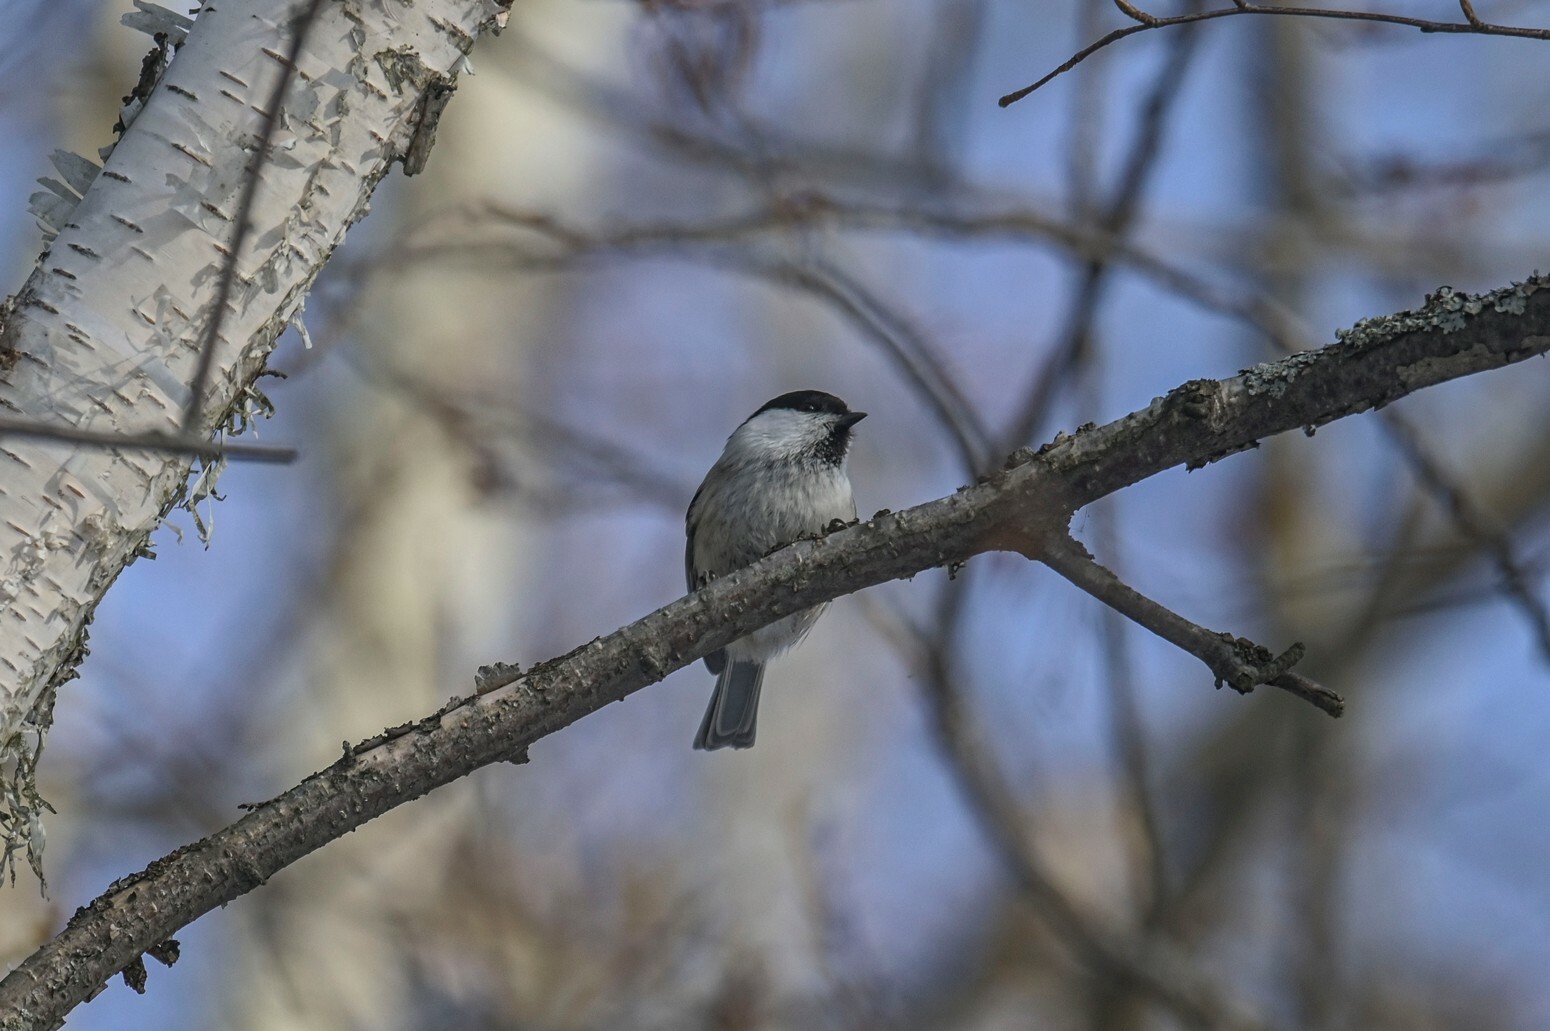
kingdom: Animalia
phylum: Chordata
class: Aves
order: Passeriformes
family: Paridae
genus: Poecile
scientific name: Poecile montanus
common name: Willow tit
